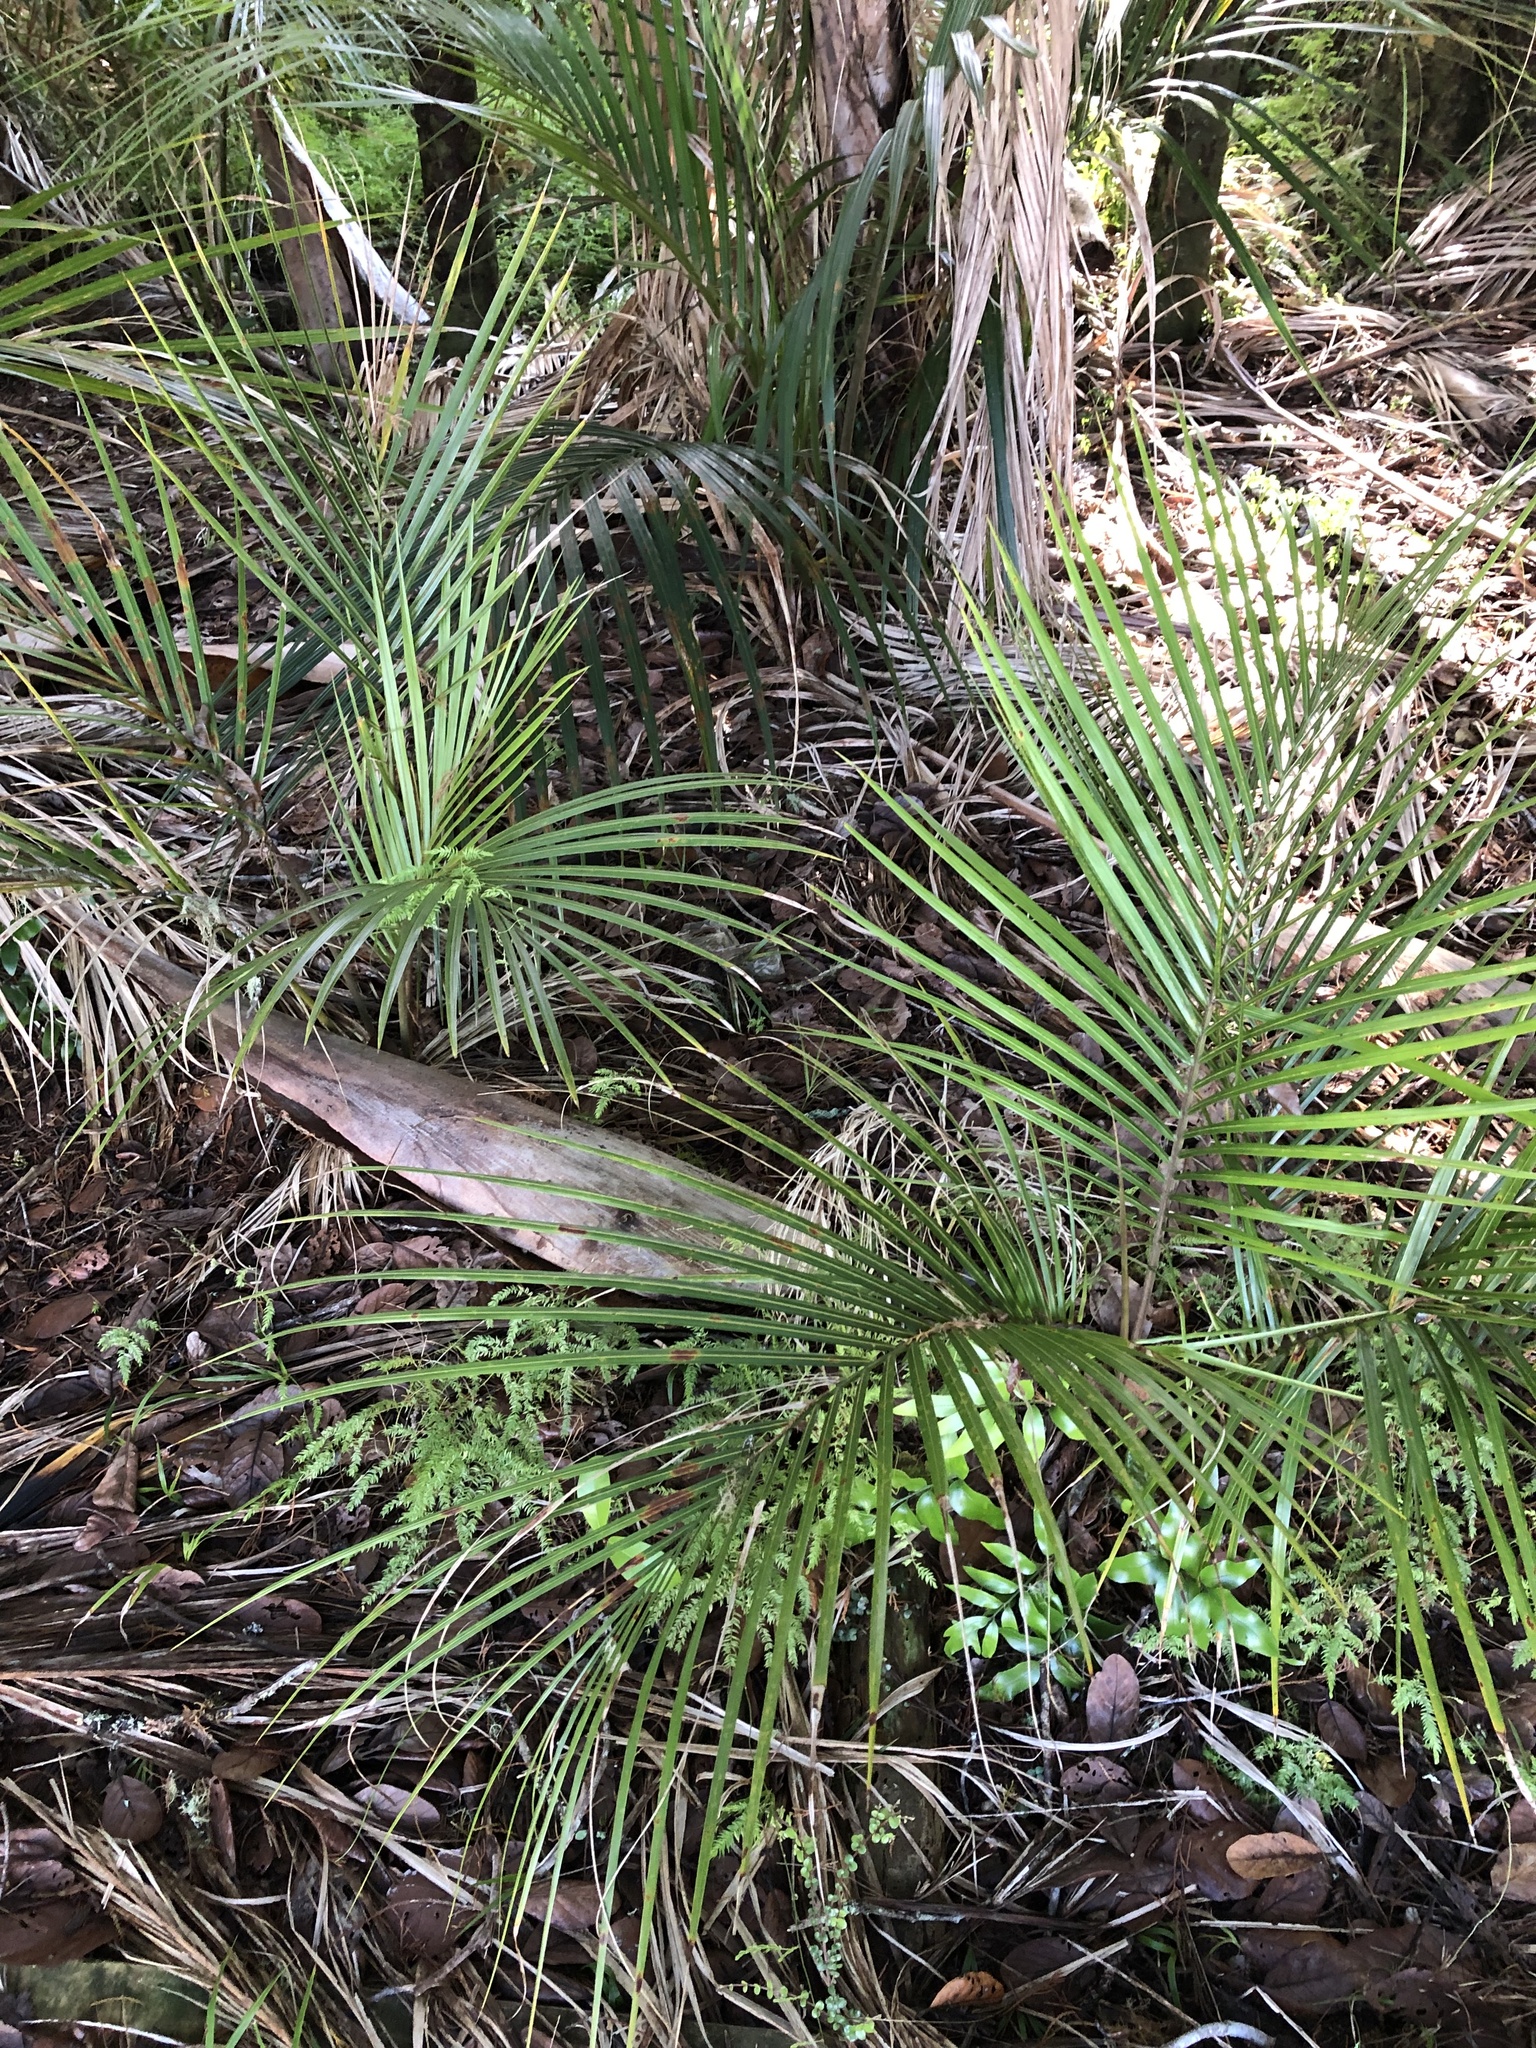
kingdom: Plantae
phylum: Tracheophyta
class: Liliopsida
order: Arecales
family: Arecaceae
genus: Rhopalostylis
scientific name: Rhopalostylis sapida
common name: Feather-duster palm
